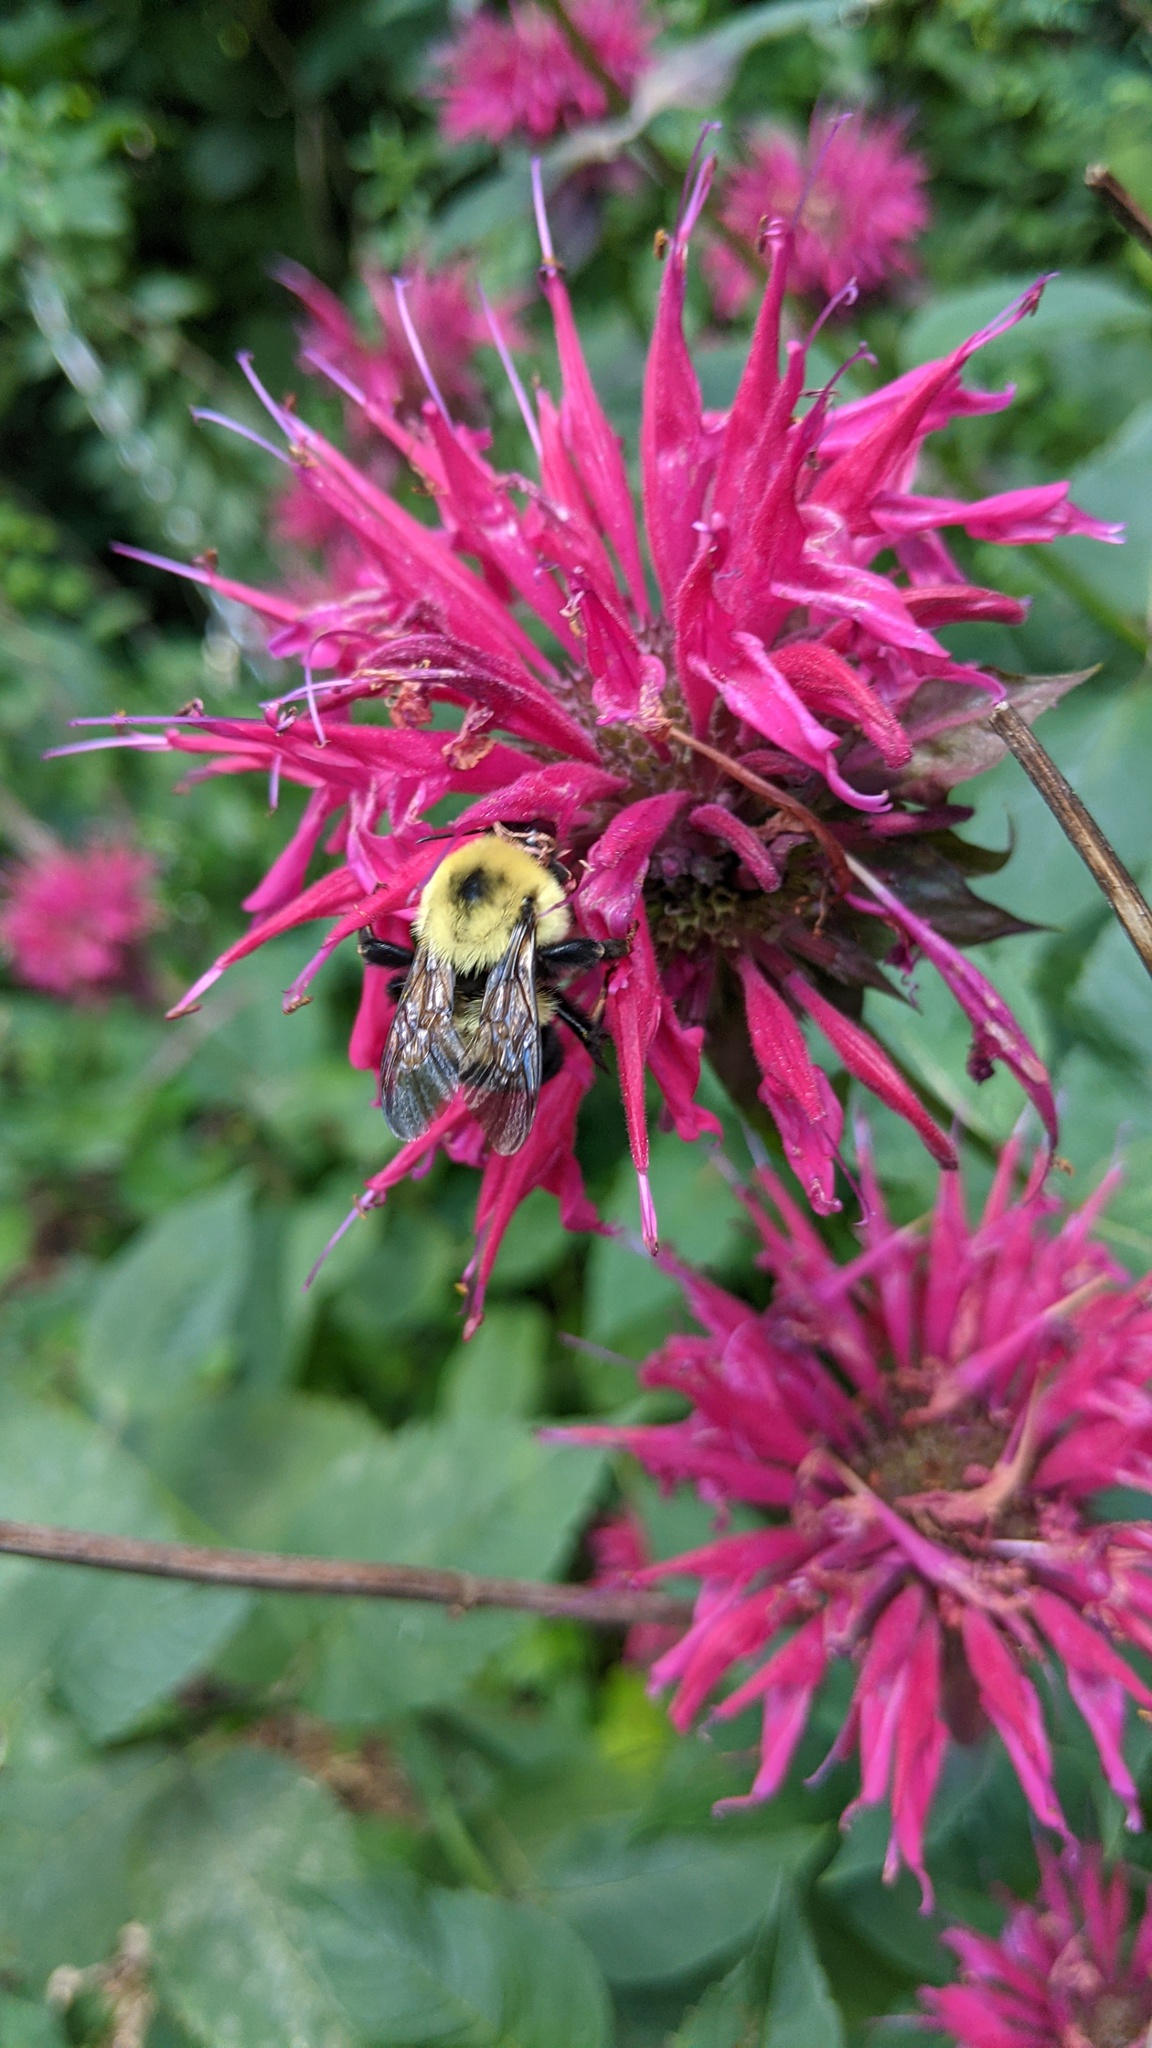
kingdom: Animalia
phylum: Arthropoda
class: Insecta
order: Hymenoptera
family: Apidae
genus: Bombus
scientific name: Bombus bimaculatus
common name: Two-spotted bumble bee
